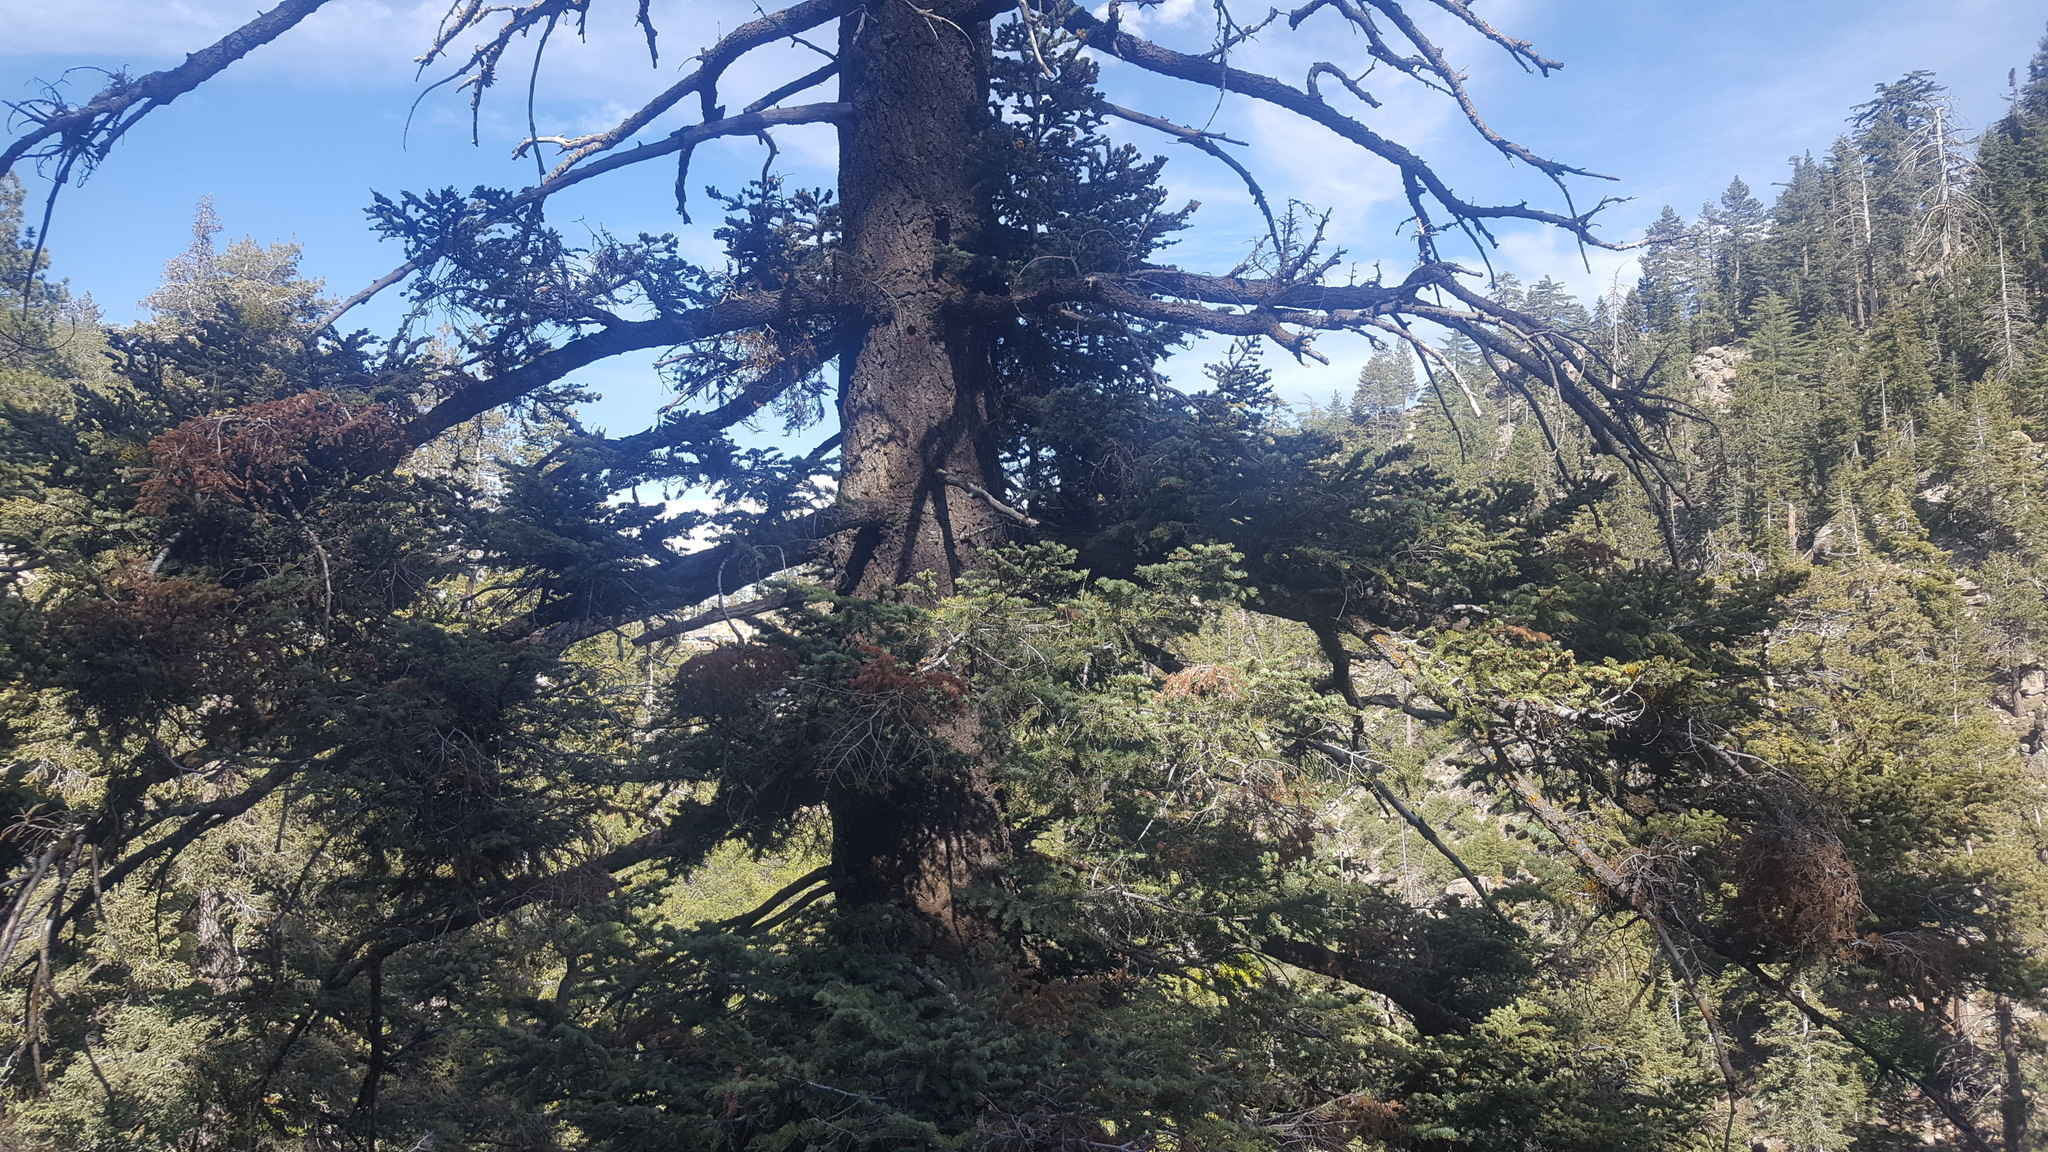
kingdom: Plantae
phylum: Tracheophyta
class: Pinopsida
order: Pinales
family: Pinaceae
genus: Abies
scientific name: Abies concolor
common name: Colorado fir
